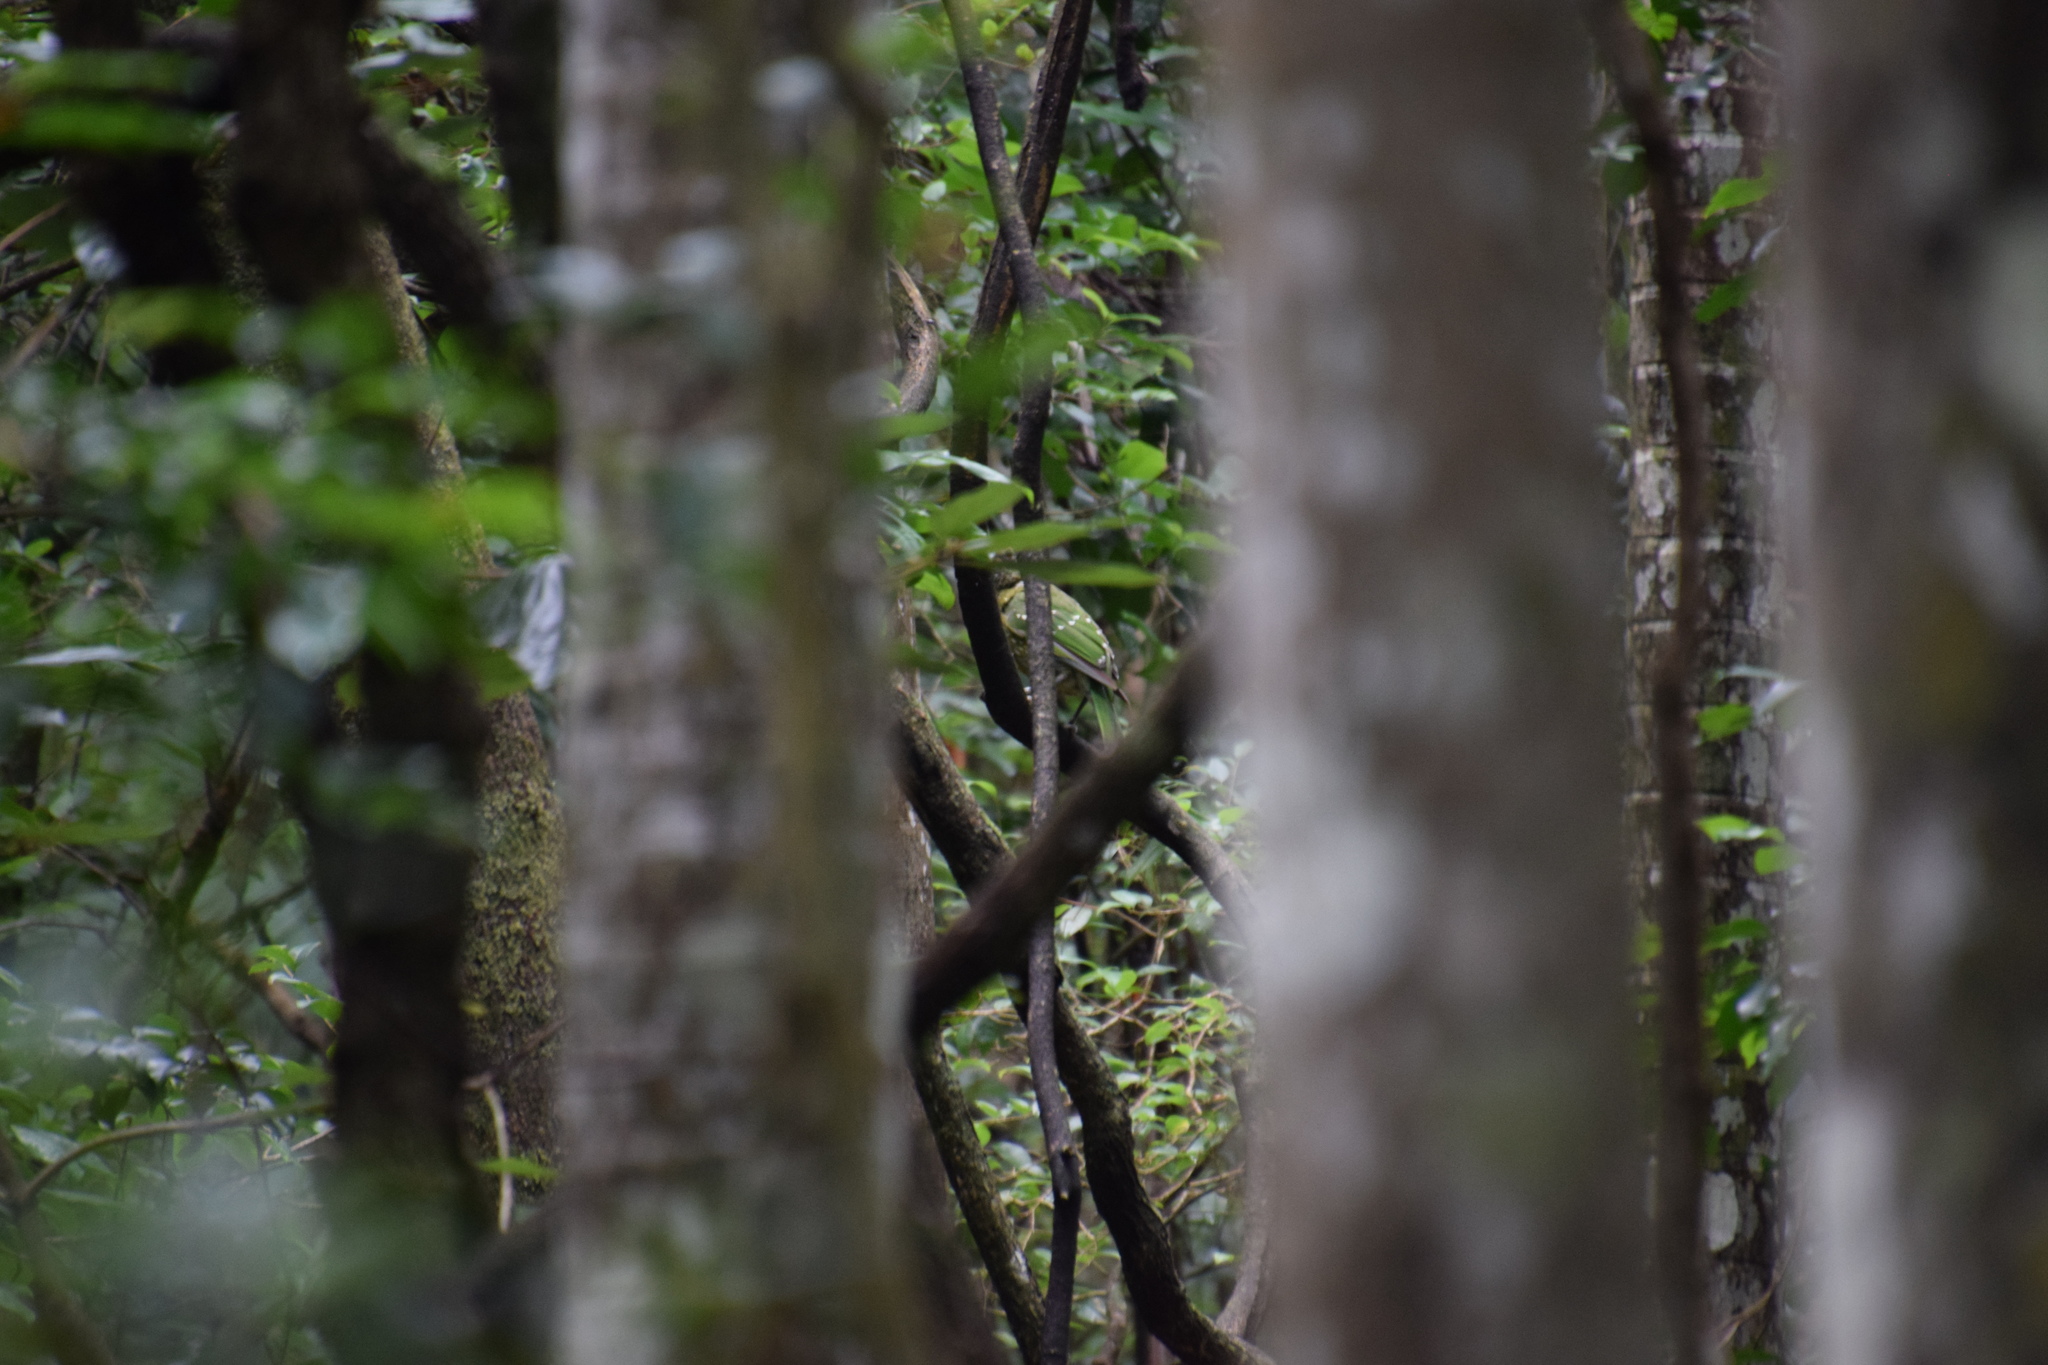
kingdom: Animalia
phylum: Chordata
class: Aves
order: Passeriformes
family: Ptilonorhynchidae
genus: Ailuroedus
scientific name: Ailuroedus crassirostris
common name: Green catbird
